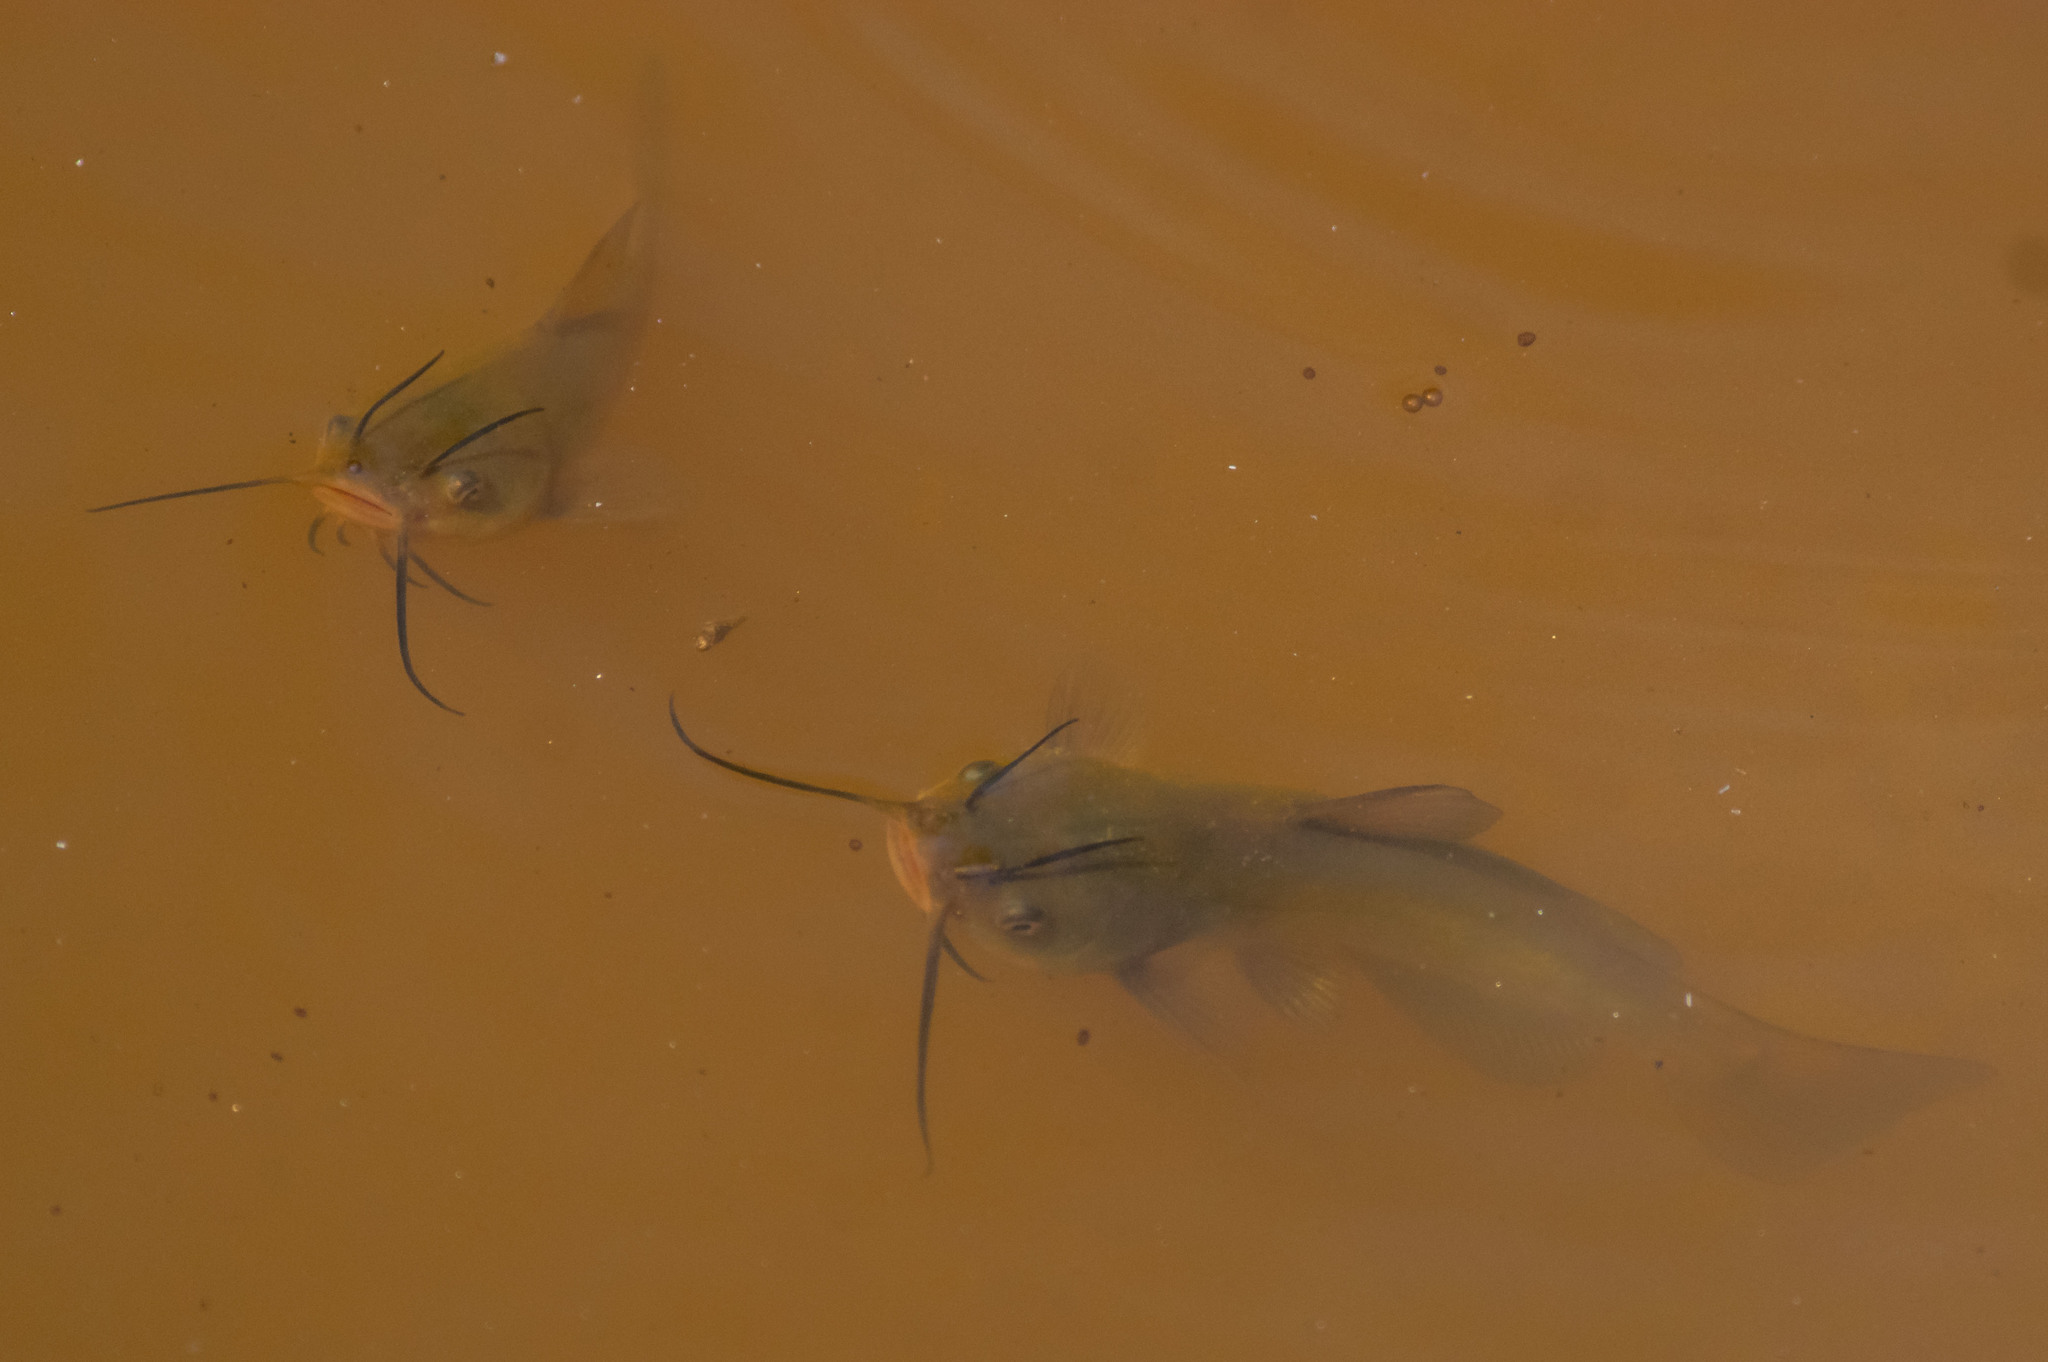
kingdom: Animalia
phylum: Chordata
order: Siluriformes
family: Ictaluridae
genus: Ameiurus
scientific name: Ameiurus nebulosus
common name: Brown bullhead
